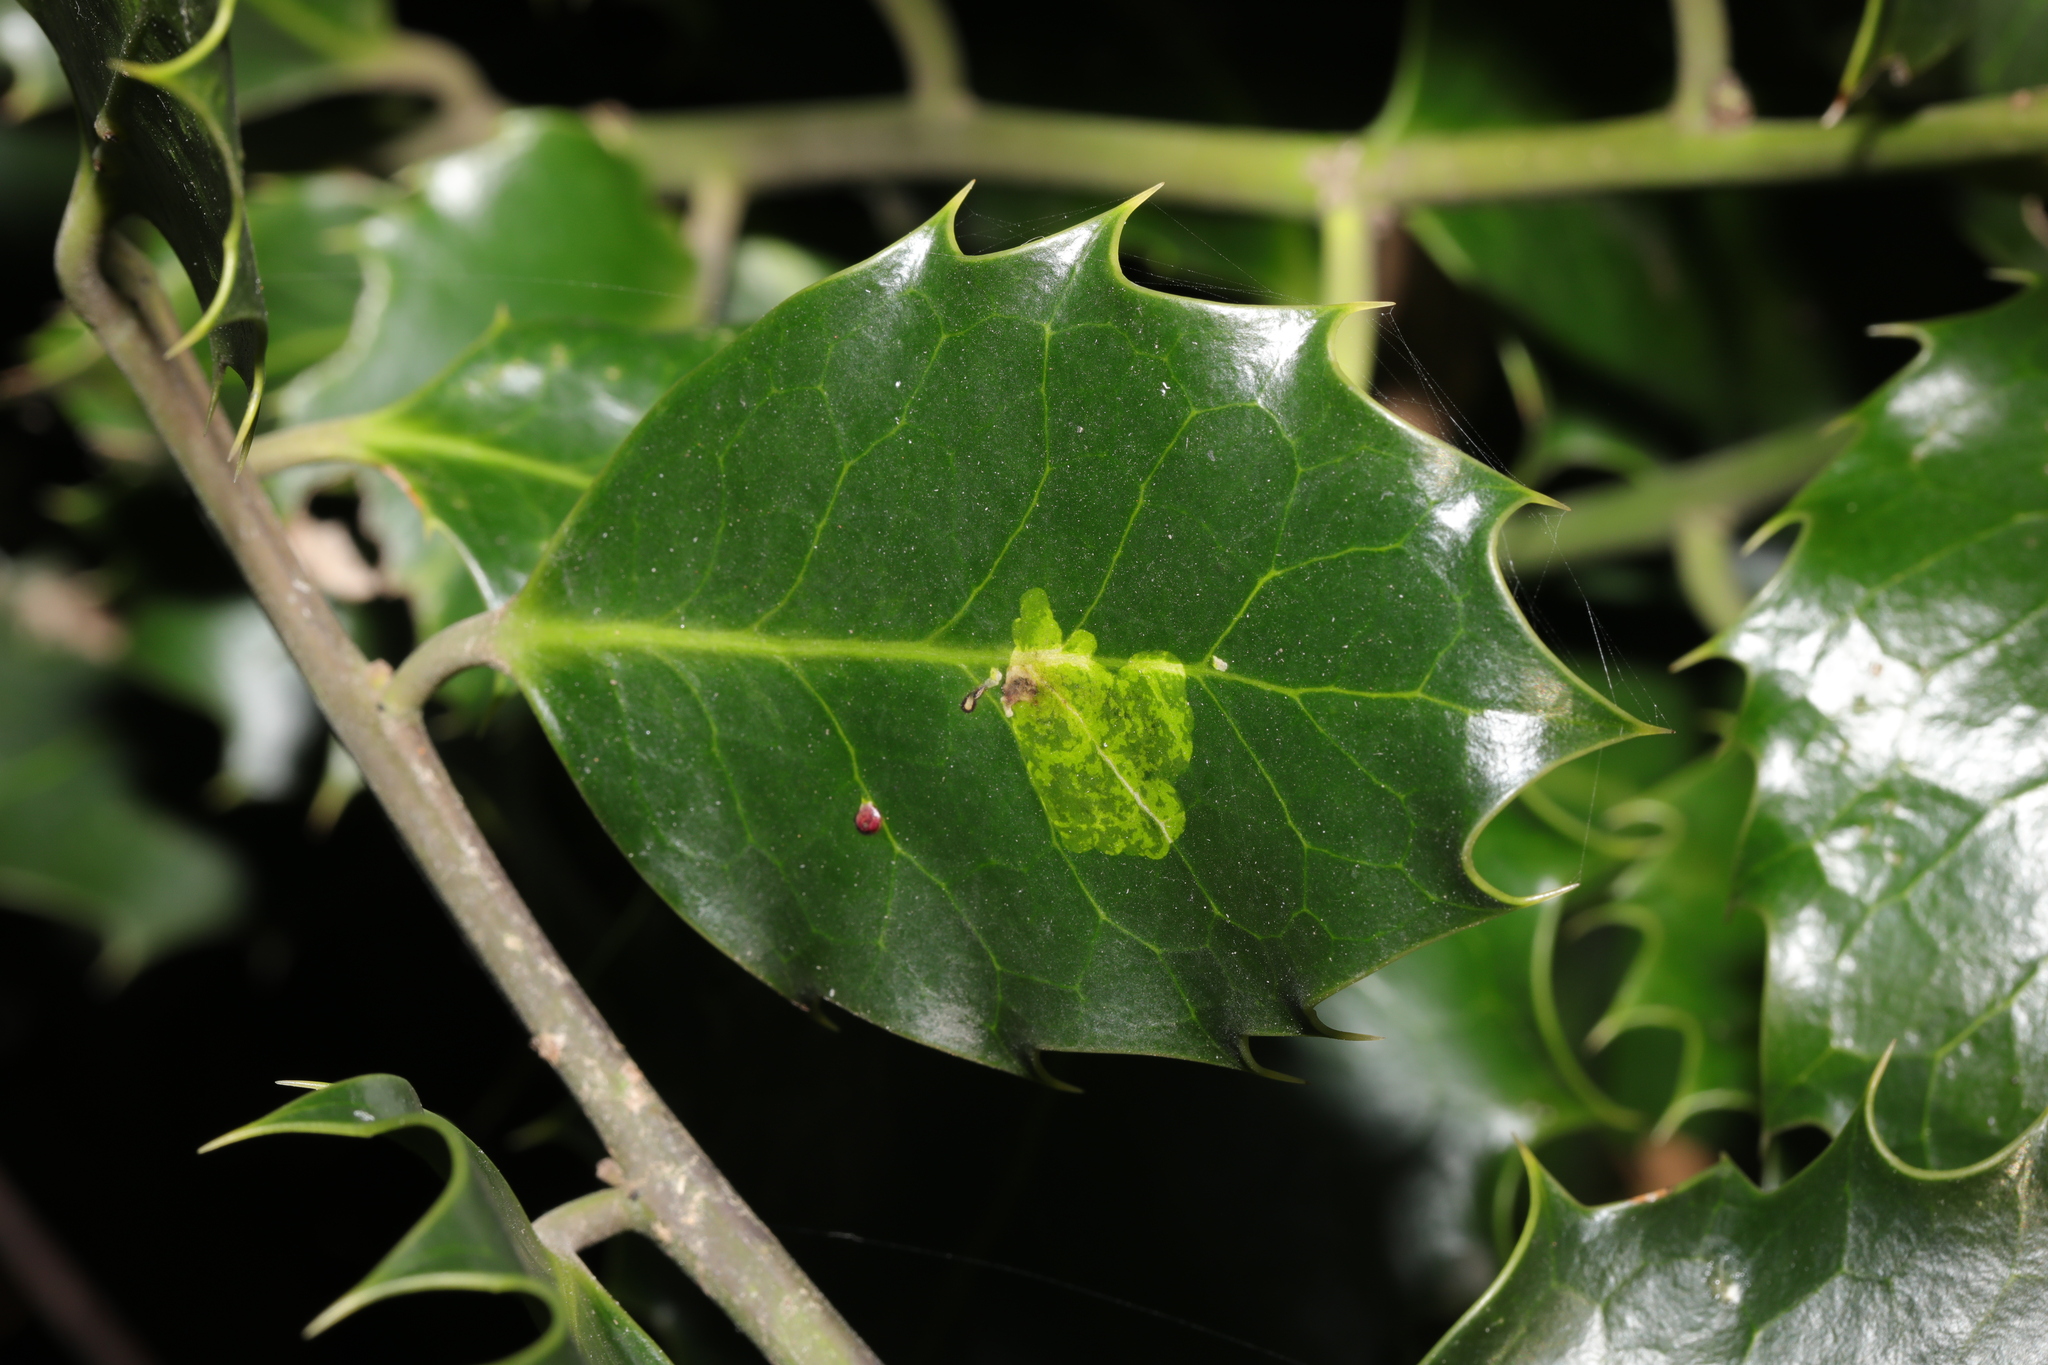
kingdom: Animalia
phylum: Arthropoda
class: Insecta
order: Diptera
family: Agromyzidae
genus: Phytomyza
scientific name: Phytomyza ilicis
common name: Holly leafminer
